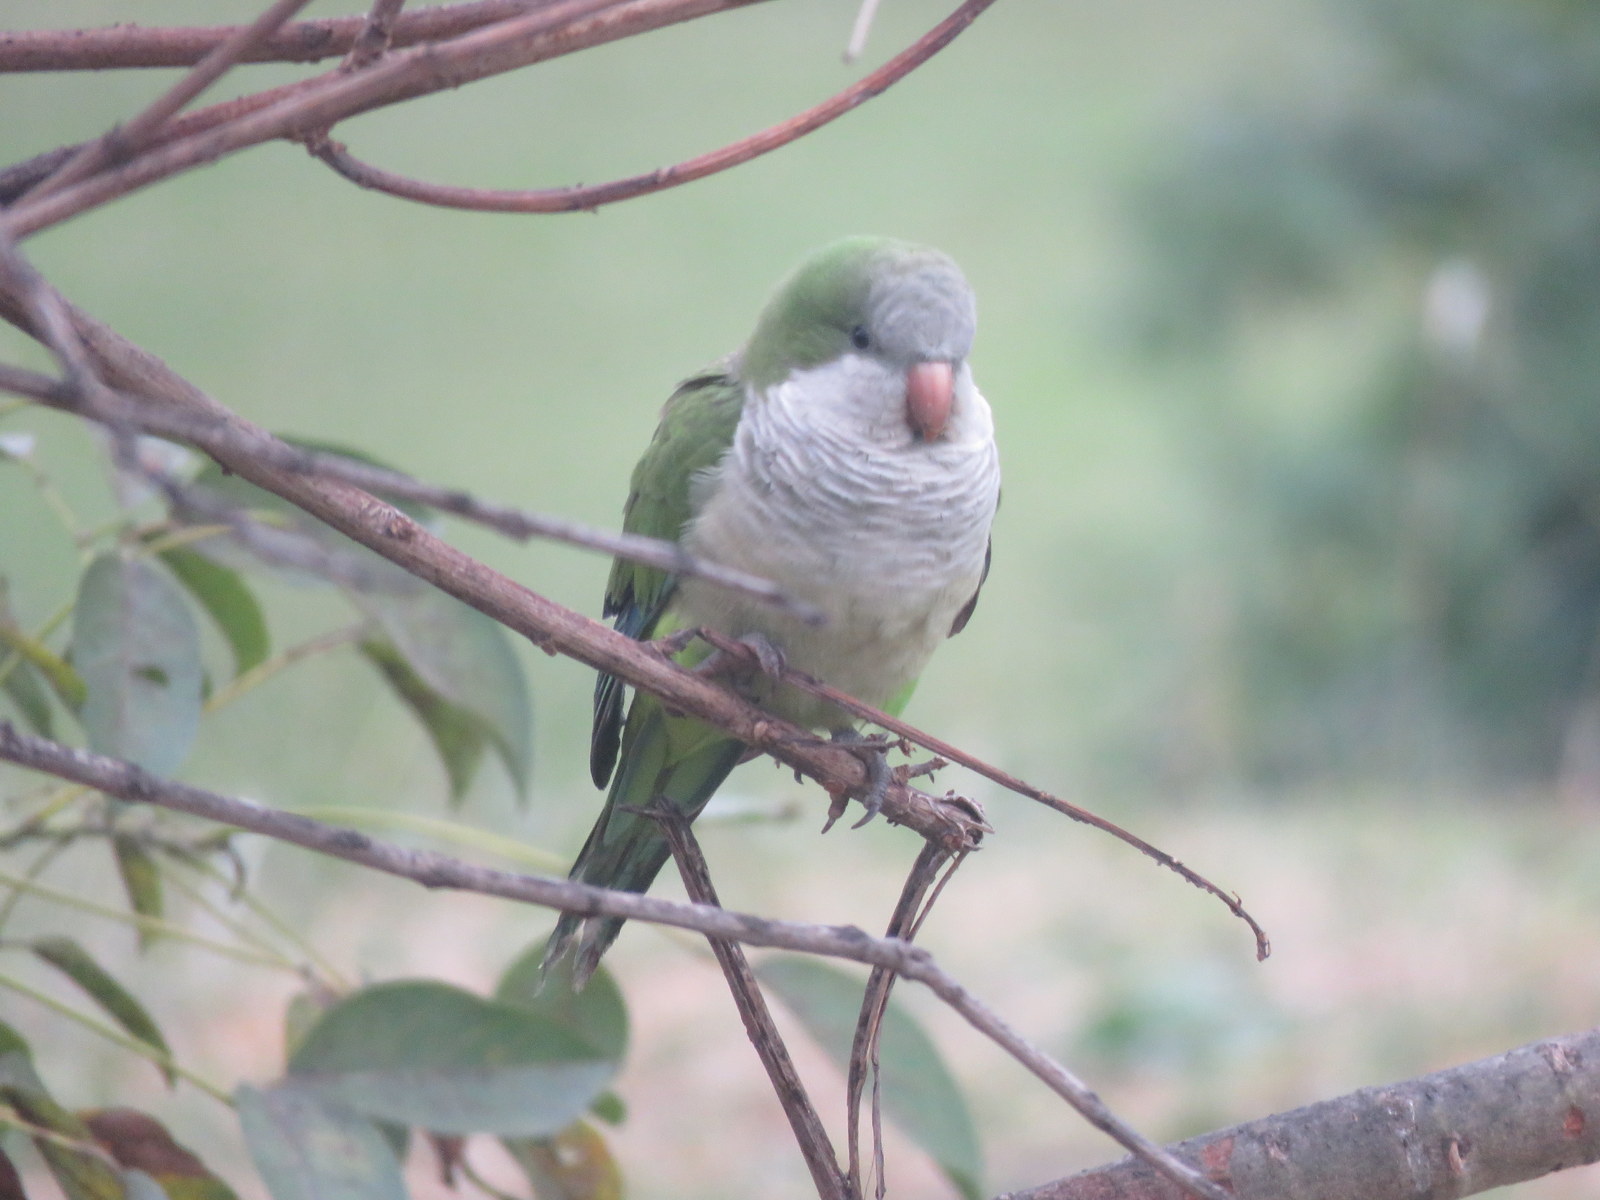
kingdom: Animalia
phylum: Chordata
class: Aves
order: Psittaciformes
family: Psittacidae
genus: Myiopsitta
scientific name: Myiopsitta monachus
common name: Monk parakeet
